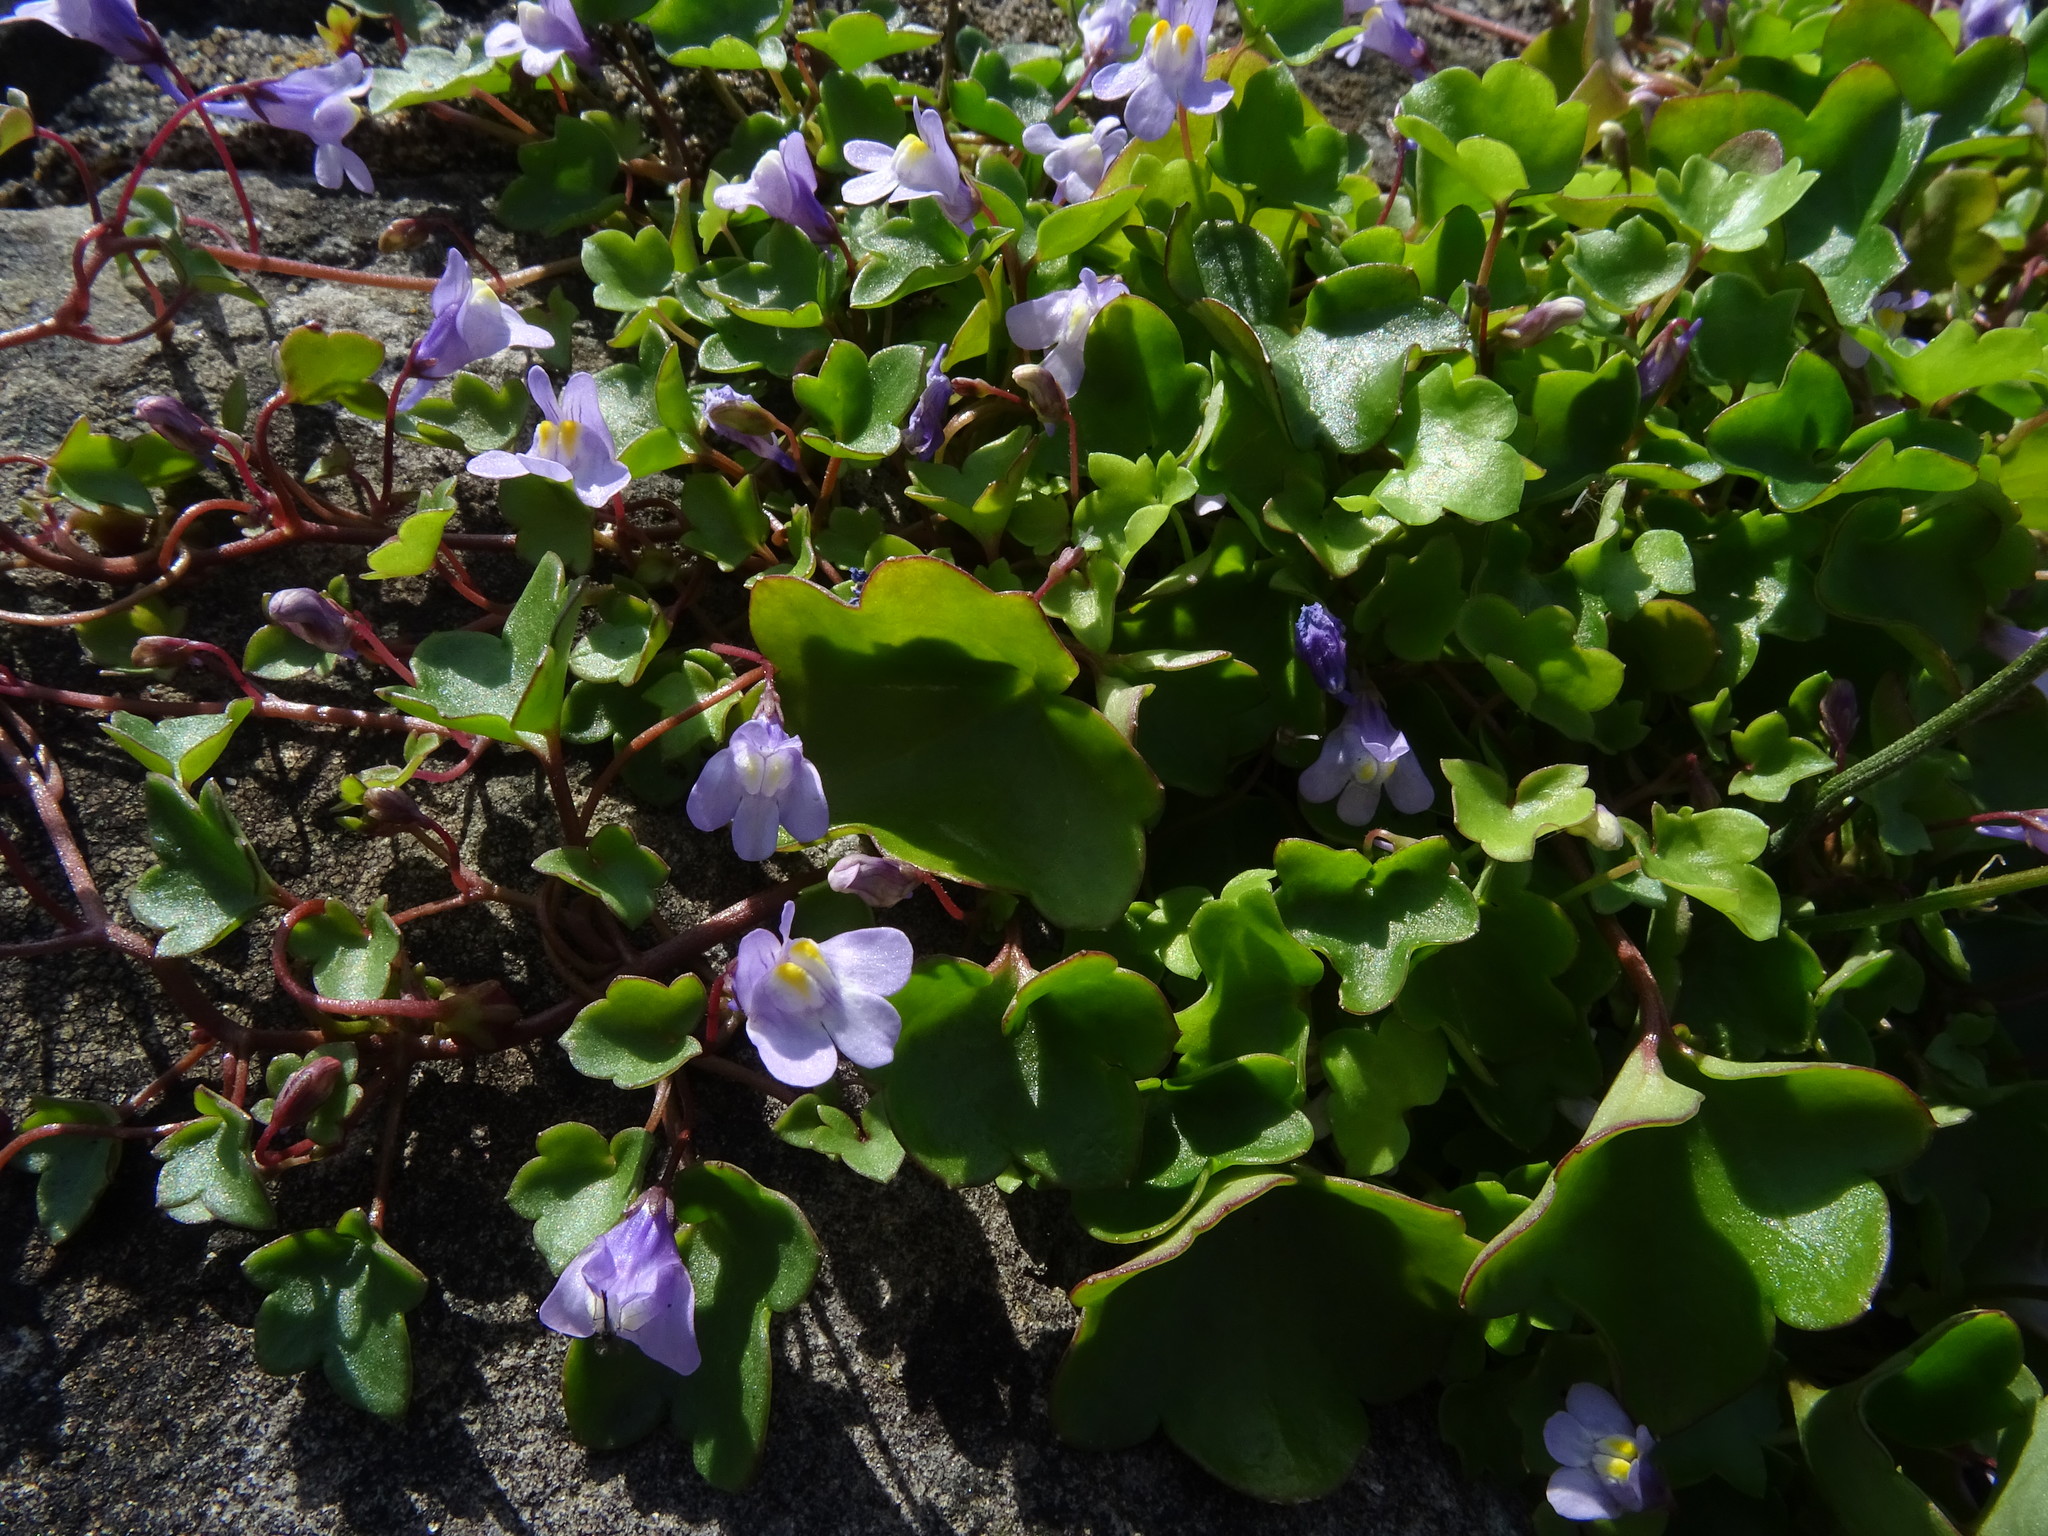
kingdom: Plantae
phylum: Tracheophyta
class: Magnoliopsida
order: Lamiales
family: Plantaginaceae
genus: Cymbalaria
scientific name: Cymbalaria muralis
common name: Ivy-leaved toadflax
